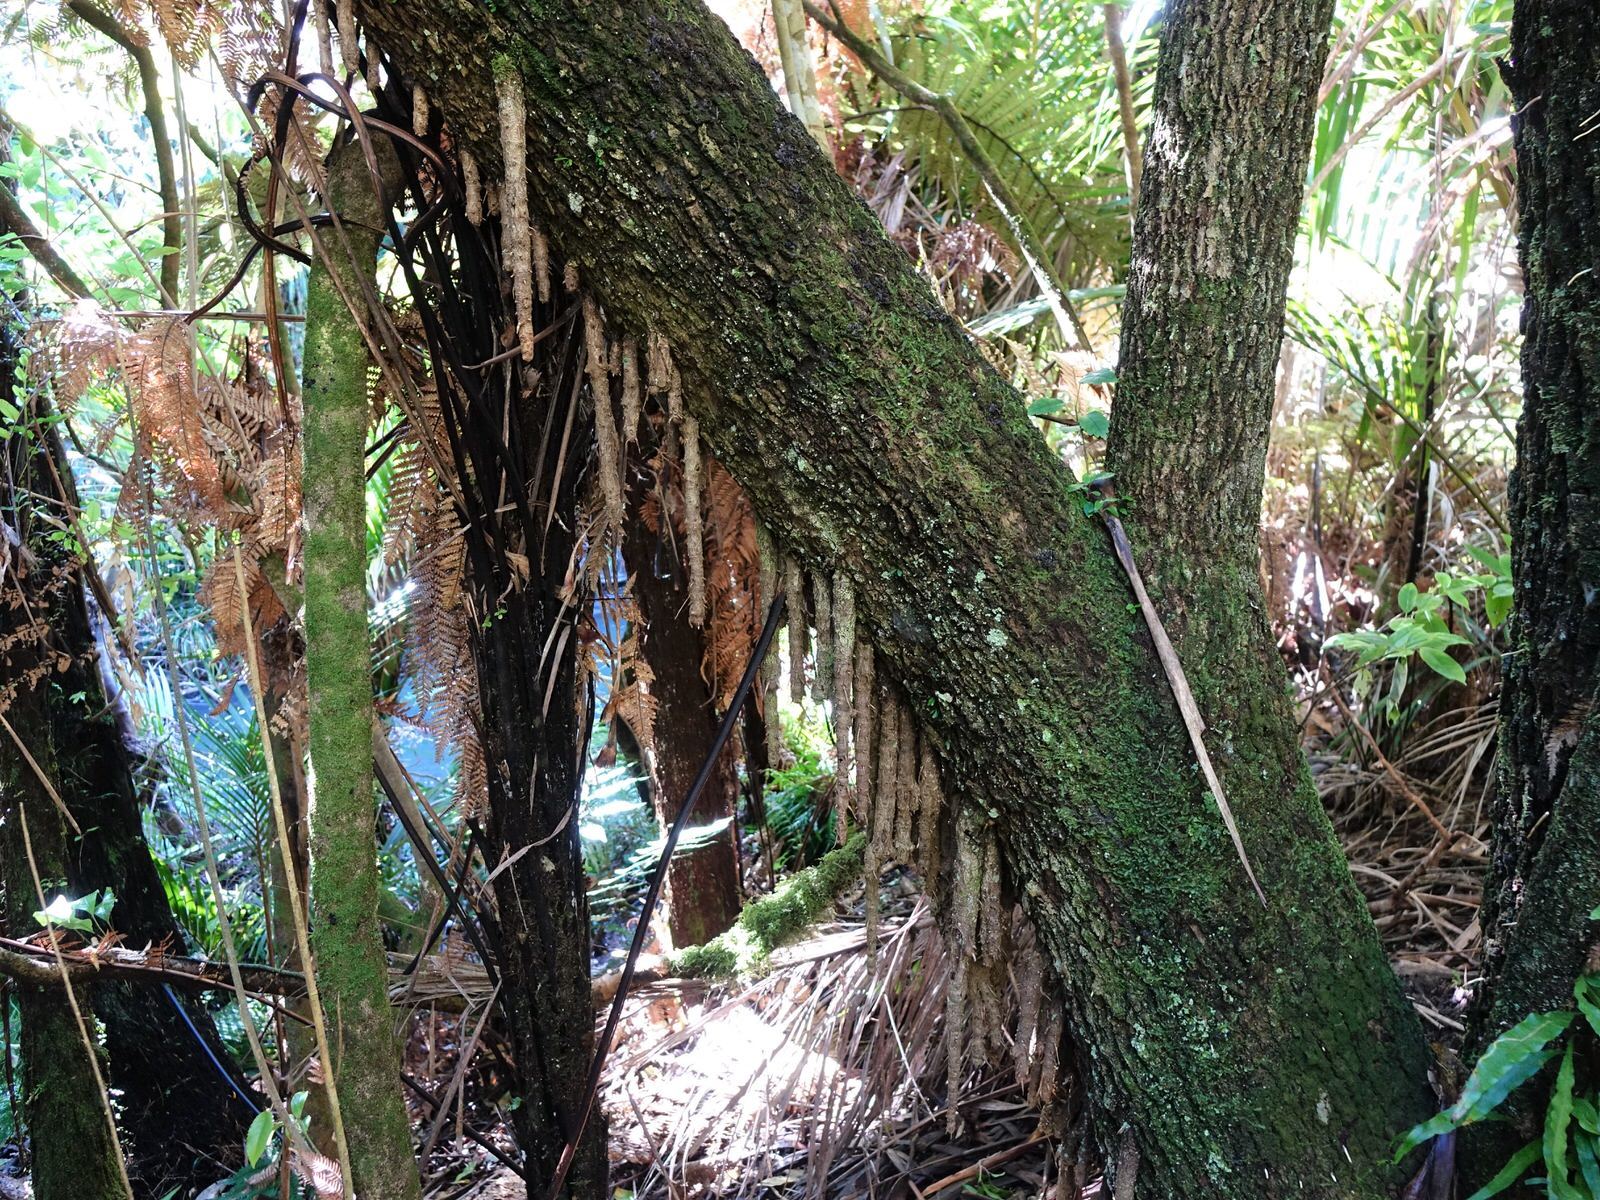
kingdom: Plantae
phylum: Tracheophyta
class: Liliopsida
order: Asparagales
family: Asparagaceae
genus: Cordyline
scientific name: Cordyline australis
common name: Cabbage-palm
